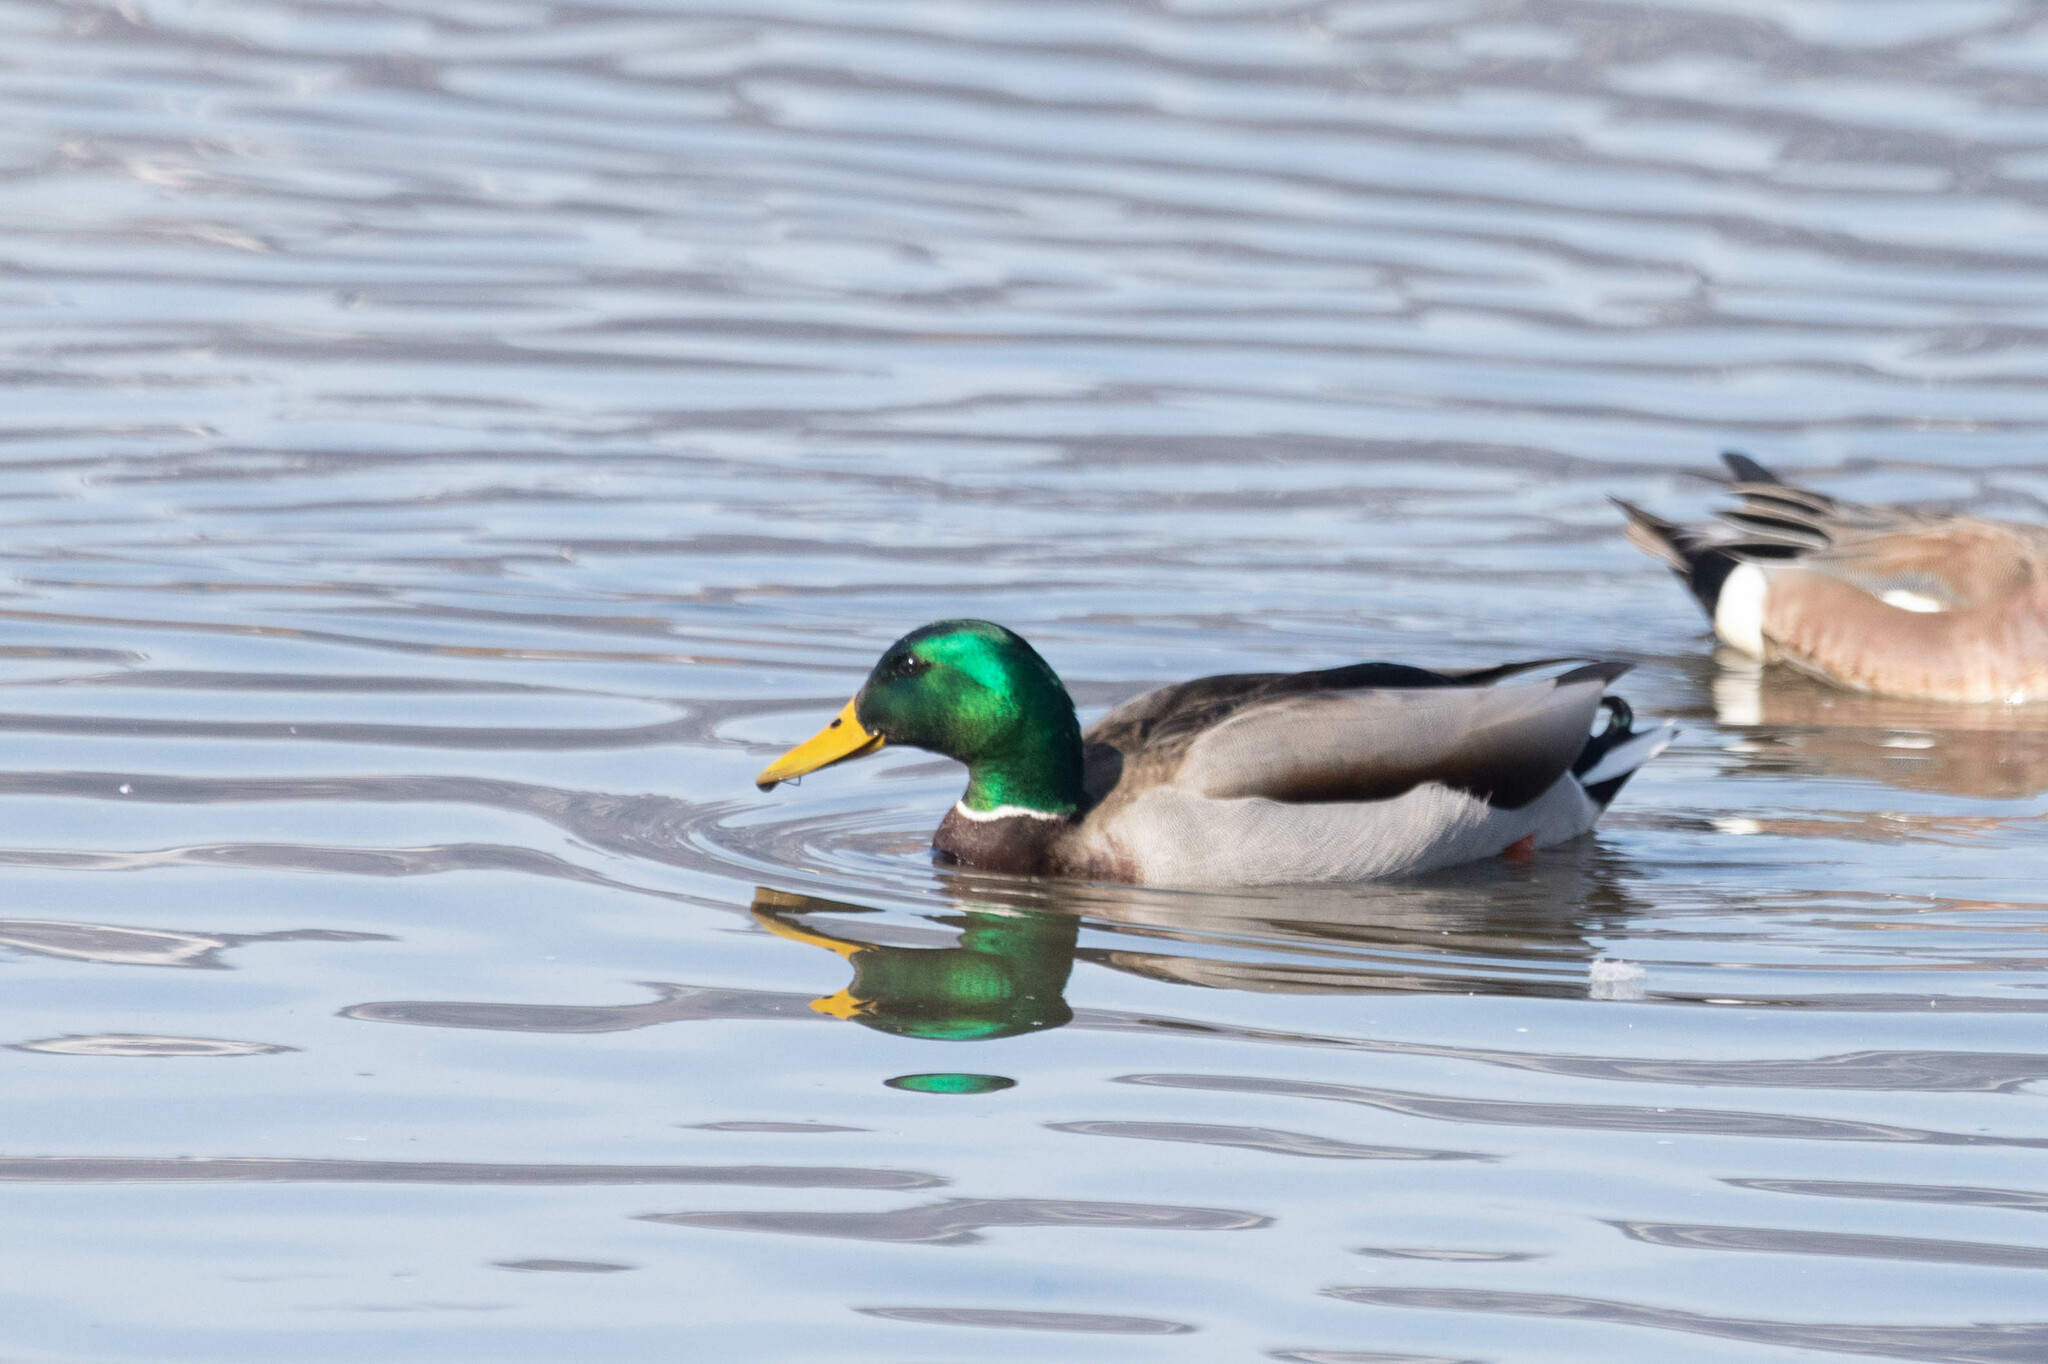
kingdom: Animalia
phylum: Chordata
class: Aves
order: Anseriformes
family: Anatidae
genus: Anas
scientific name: Anas platyrhynchos
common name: Mallard
